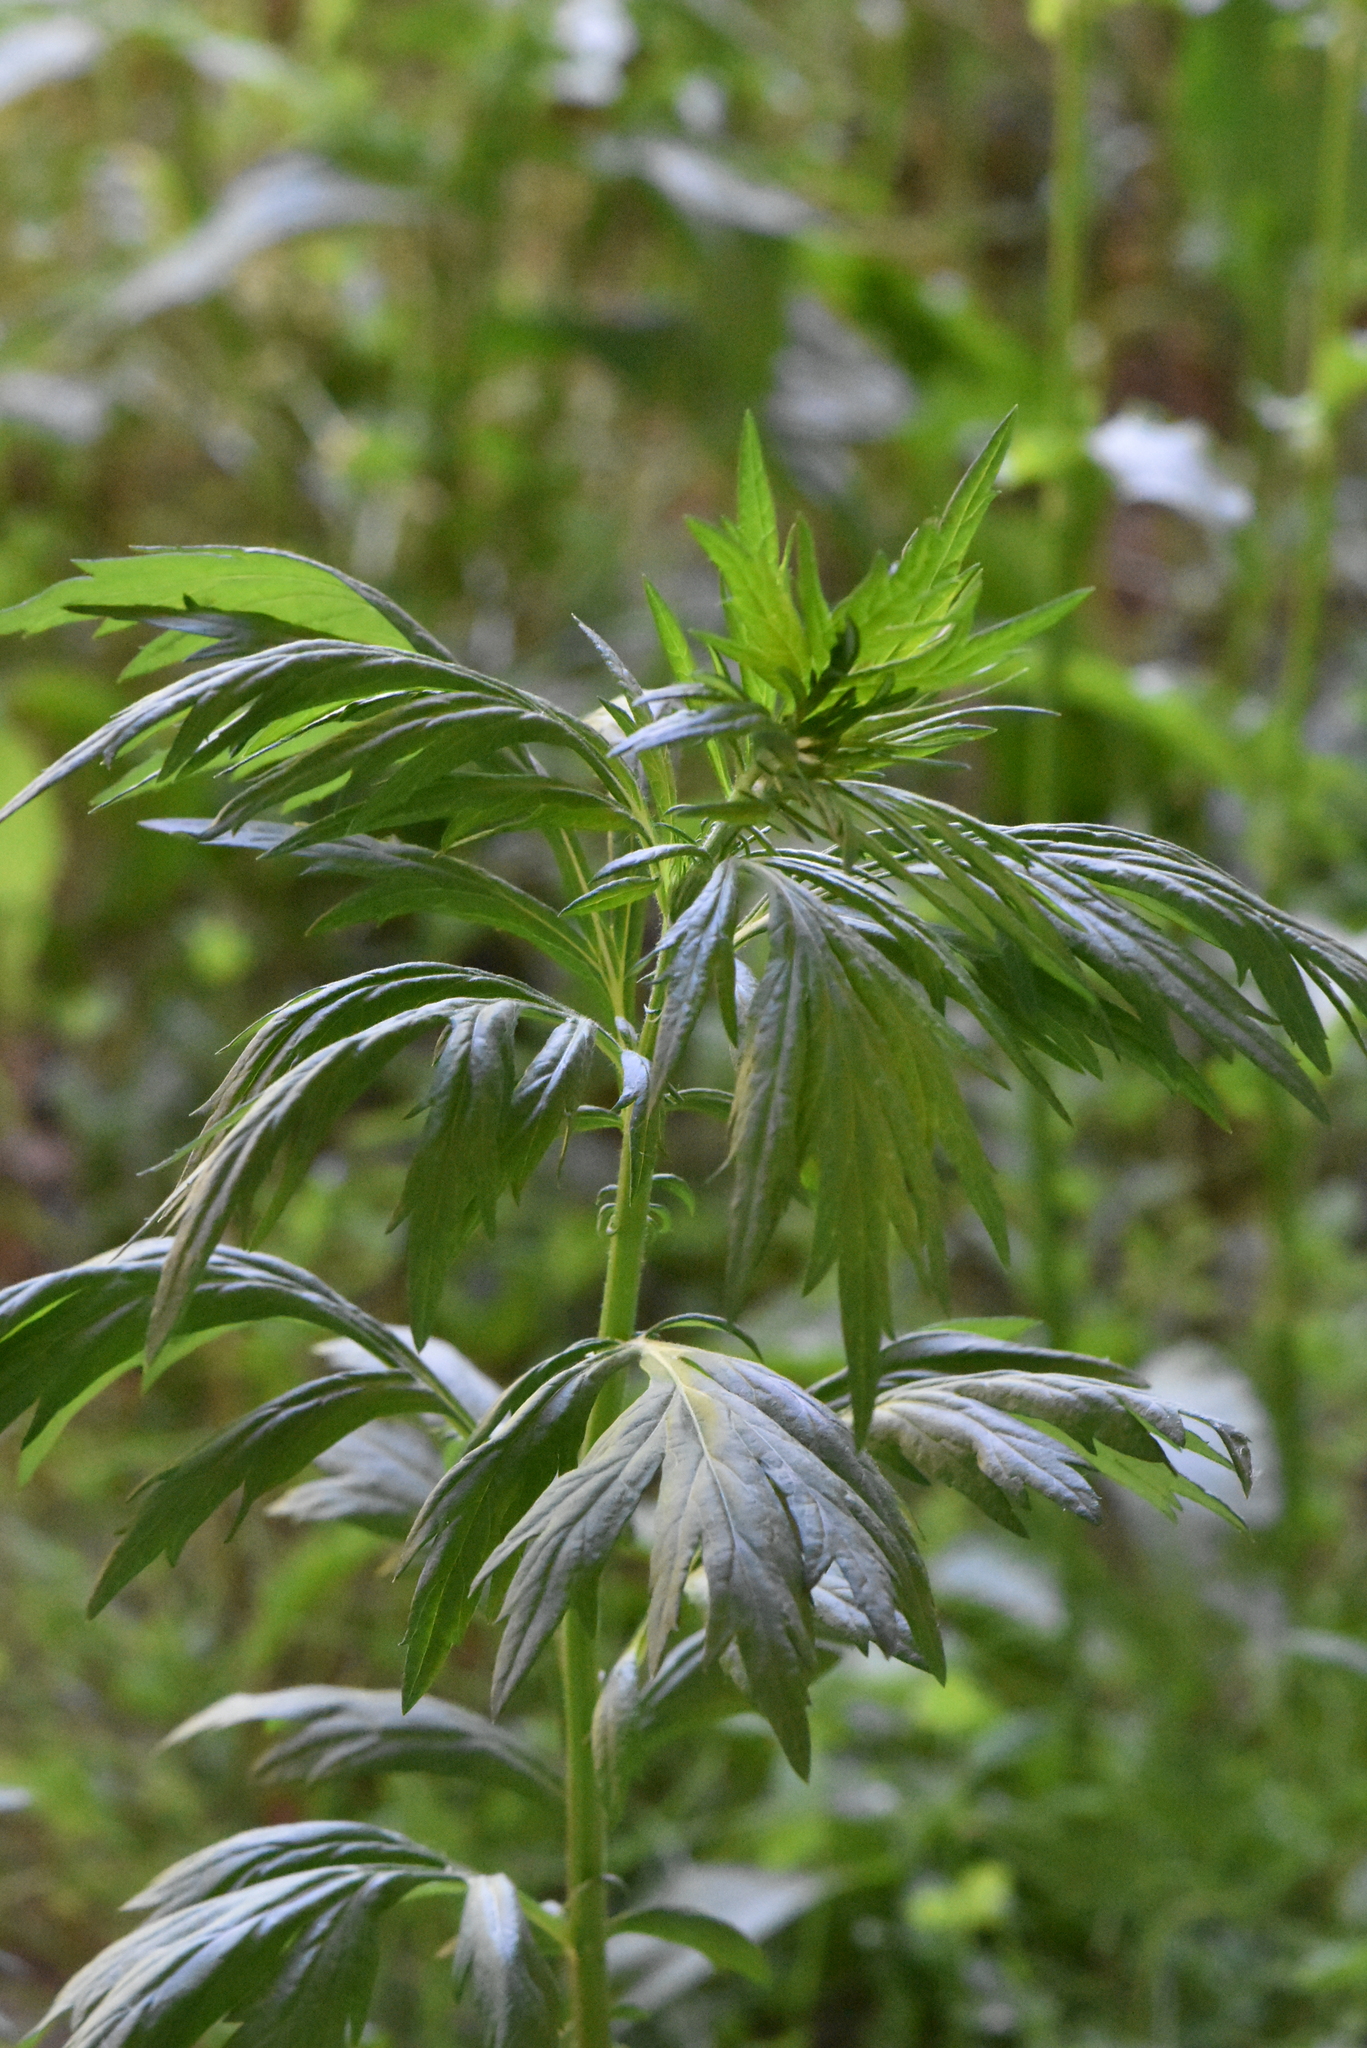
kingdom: Plantae
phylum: Tracheophyta
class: Magnoliopsida
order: Asterales
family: Asteraceae
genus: Artemisia
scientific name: Artemisia vulgaris
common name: Mugwort
